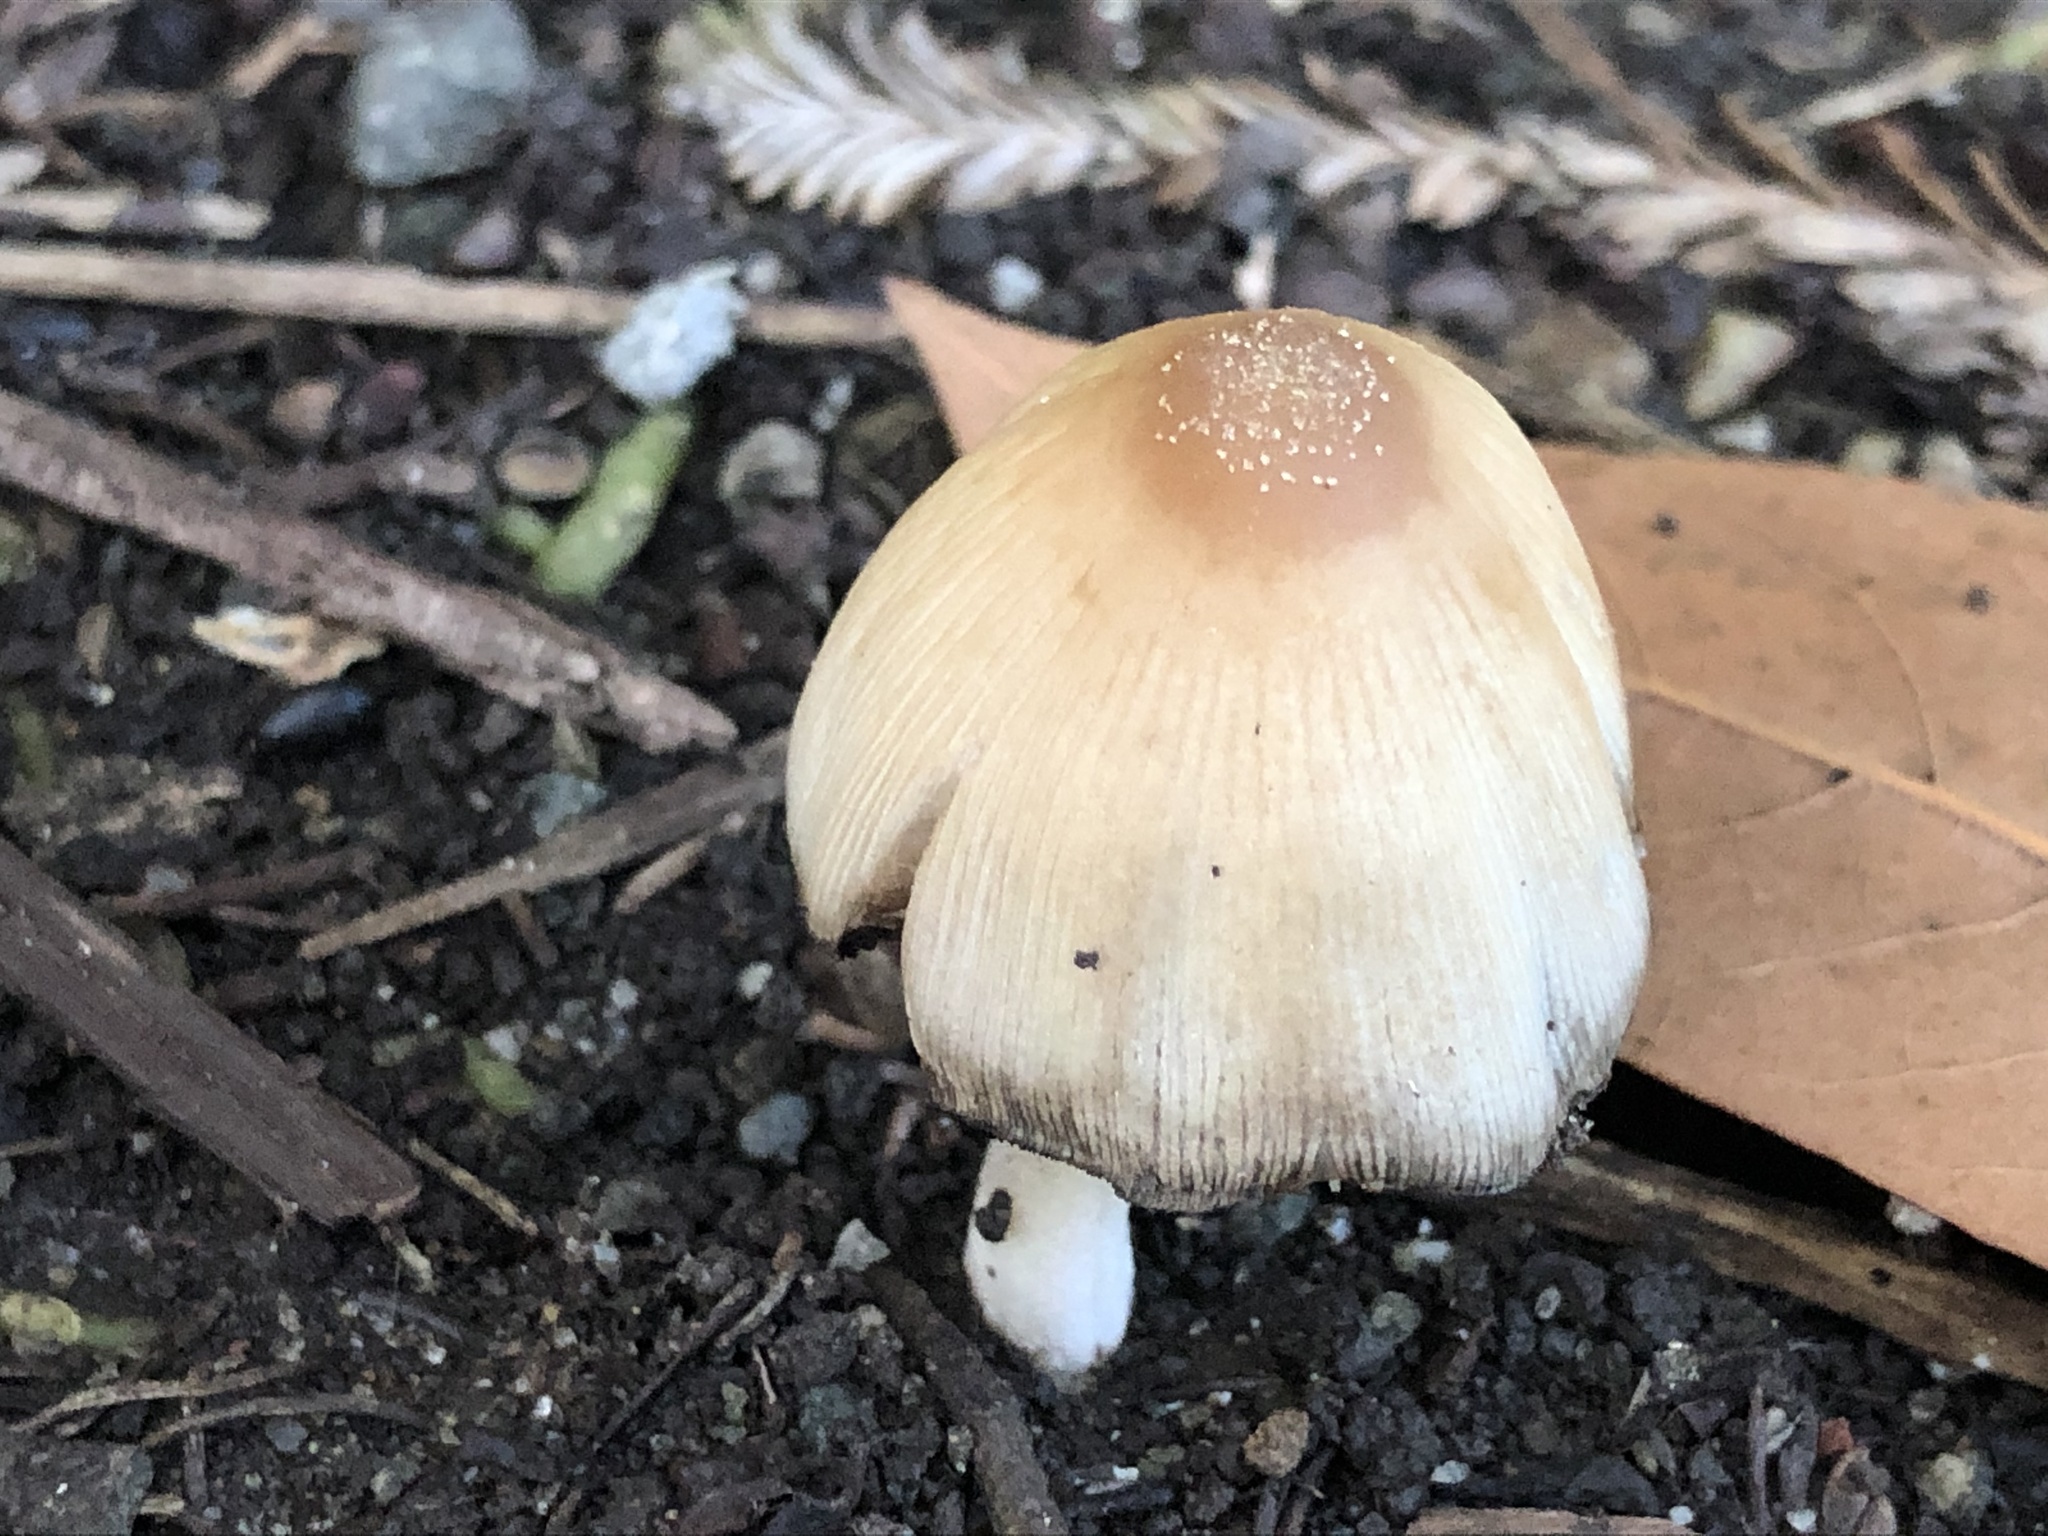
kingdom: Fungi
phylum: Basidiomycota
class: Agaricomycetes
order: Agaricales
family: Psathyrellaceae
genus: Coprinellus
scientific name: Coprinellus micaceus
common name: Glistening ink-cap
